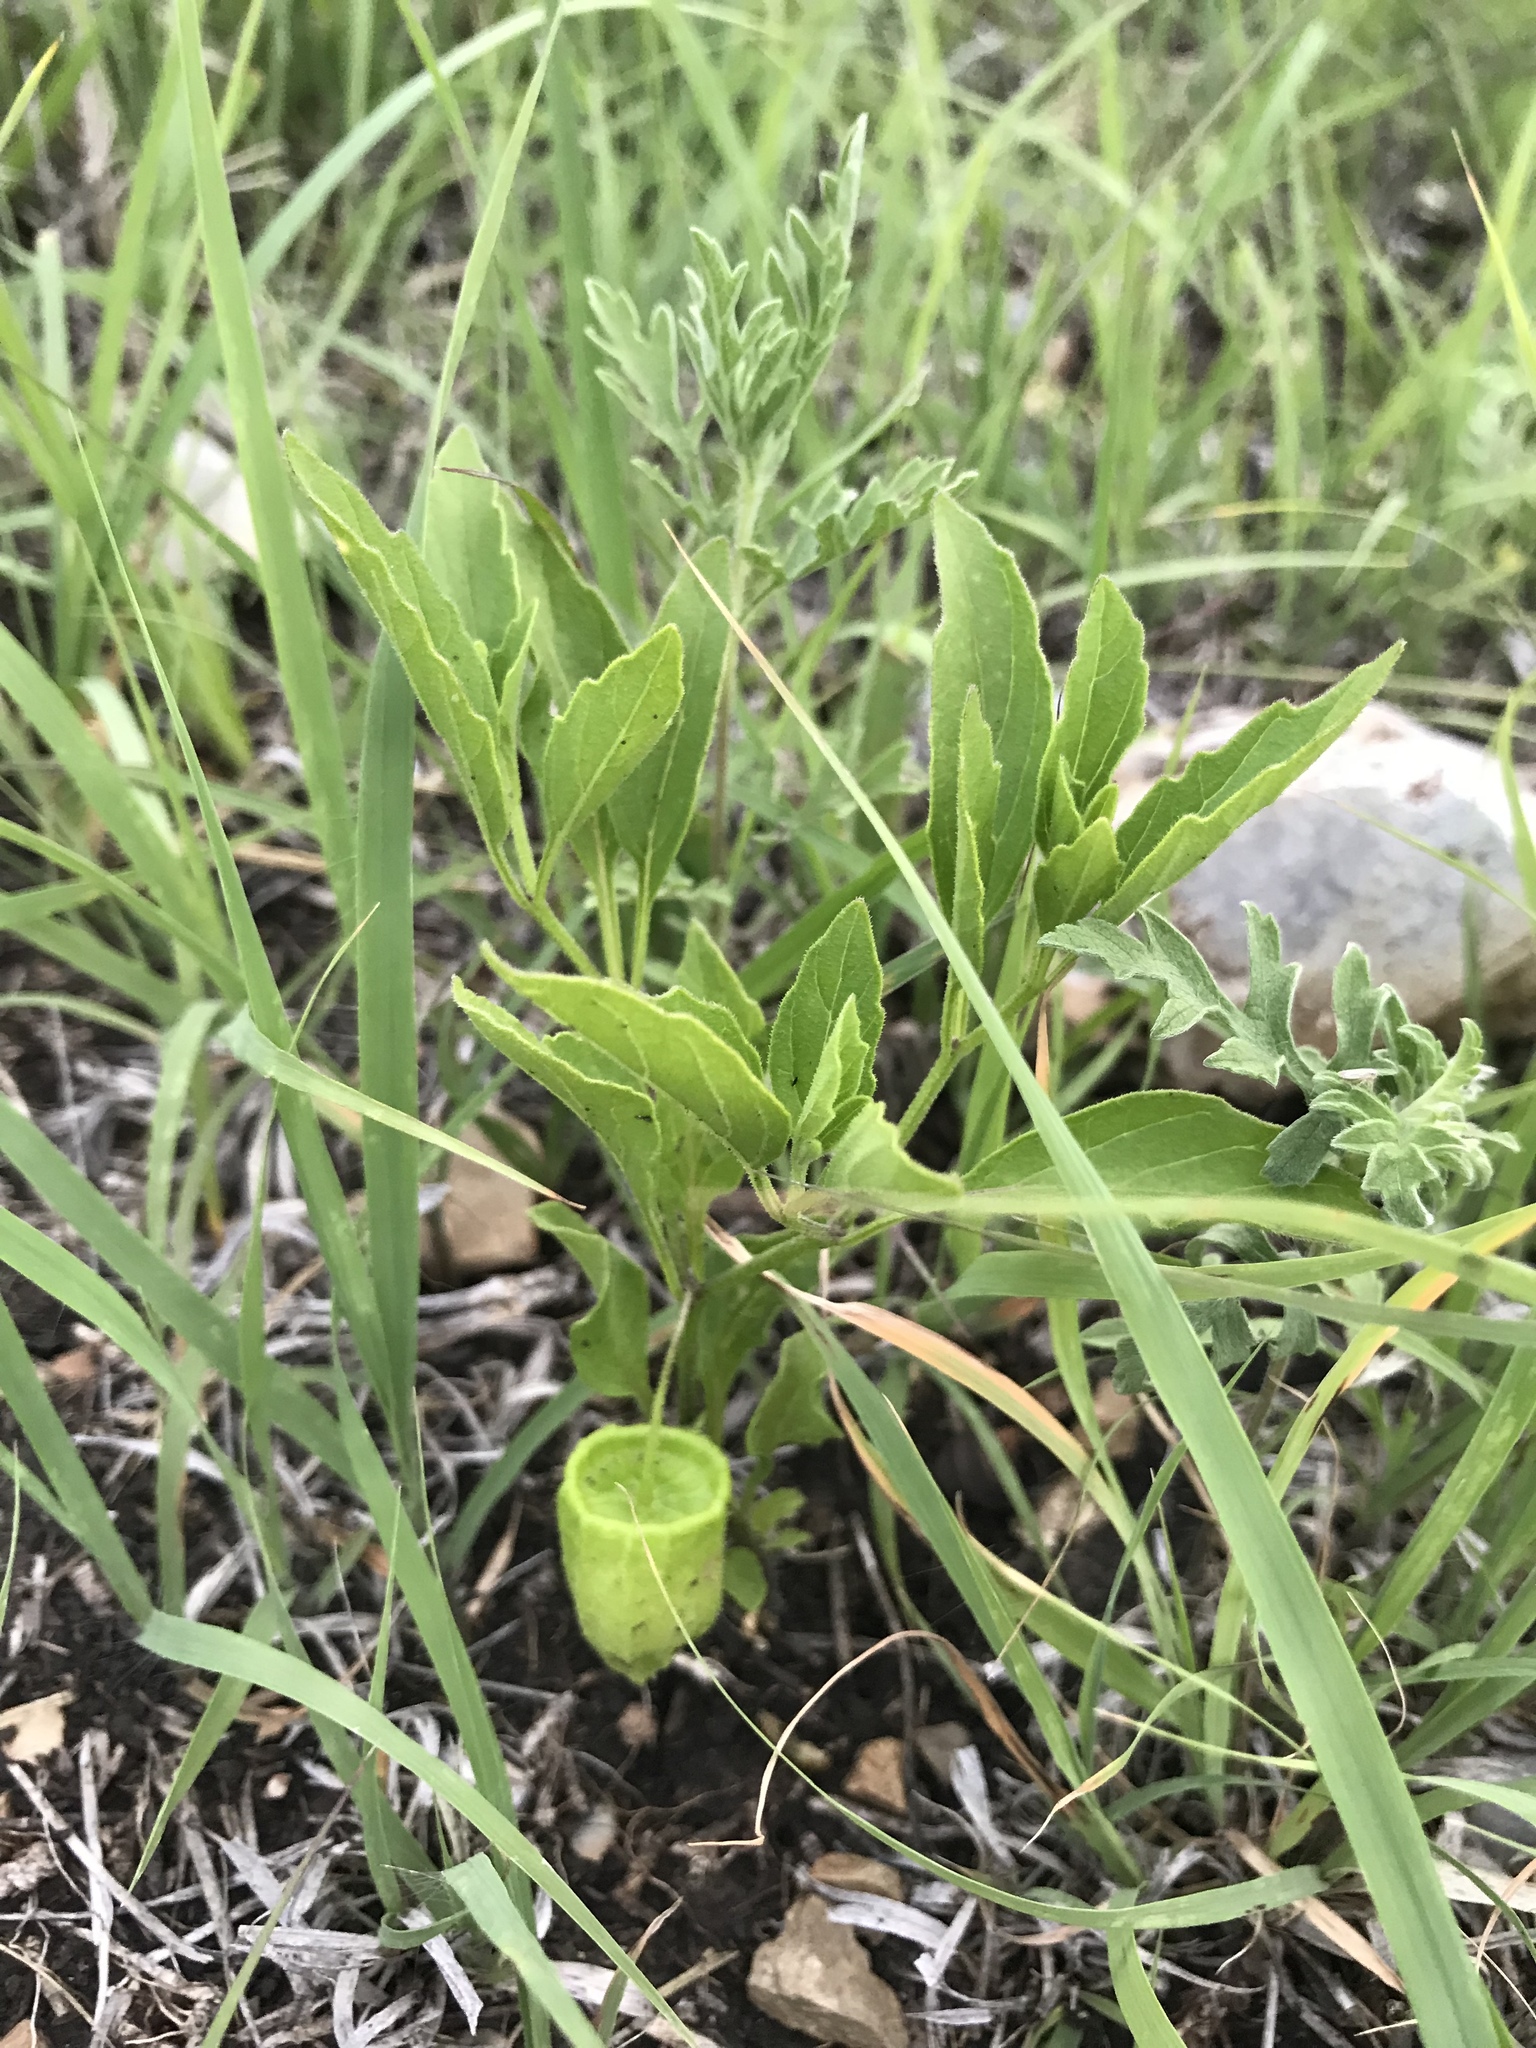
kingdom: Plantae
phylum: Tracheophyta
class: Magnoliopsida
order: Solanales
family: Solanaceae
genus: Physalis
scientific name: Physalis virginiana
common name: Virginia ground-cherry
